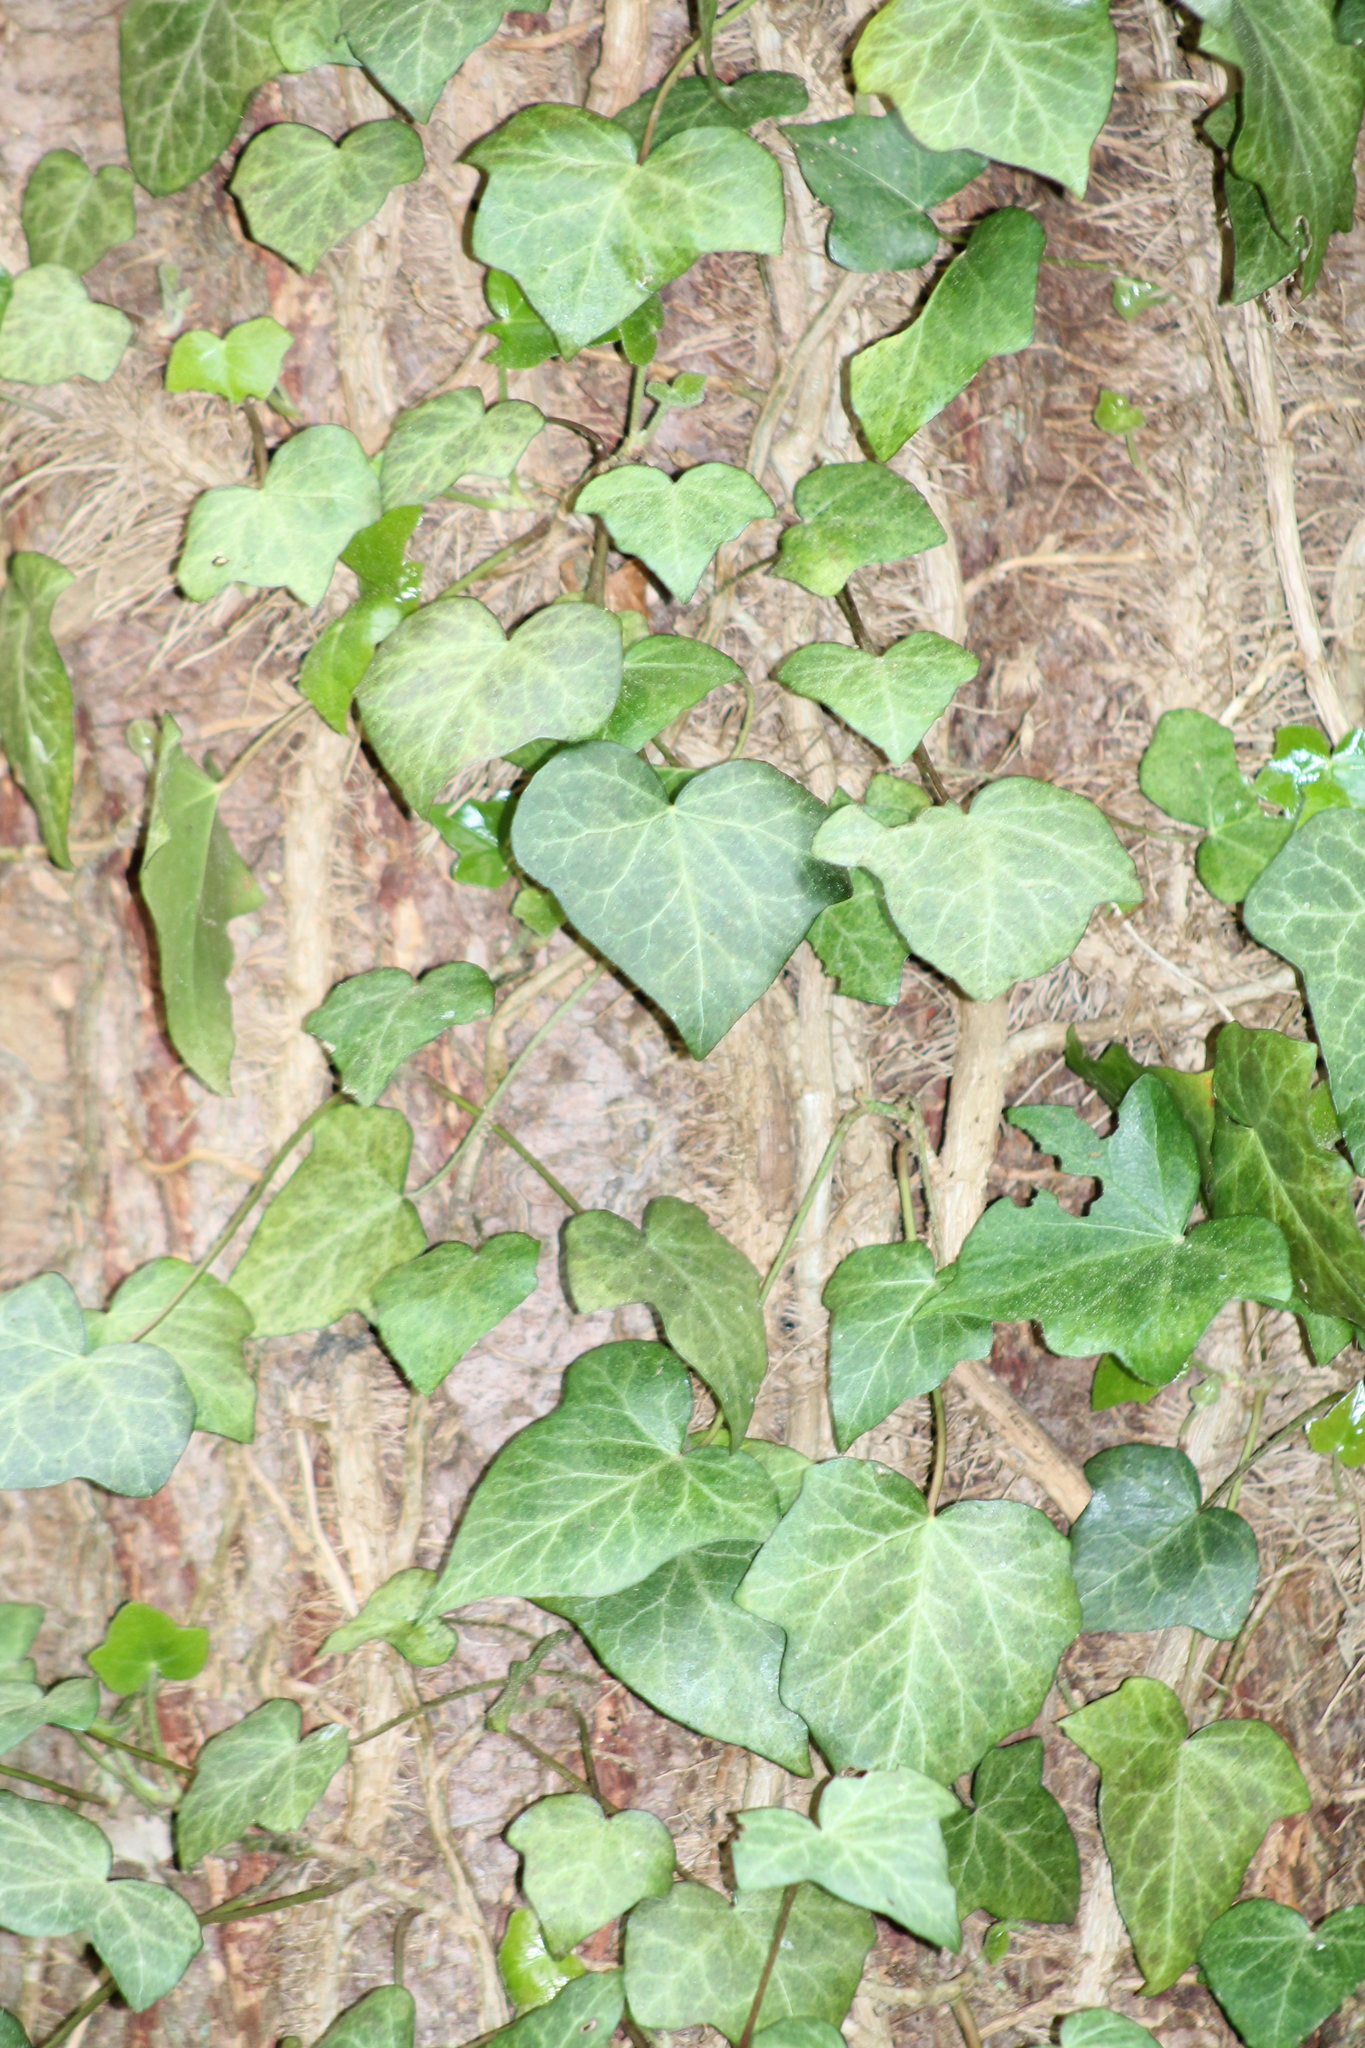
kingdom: Plantae
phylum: Tracheophyta
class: Magnoliopsida
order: Apiales
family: Araliaceae
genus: Hedera
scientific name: Hedera helix
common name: Ivy
